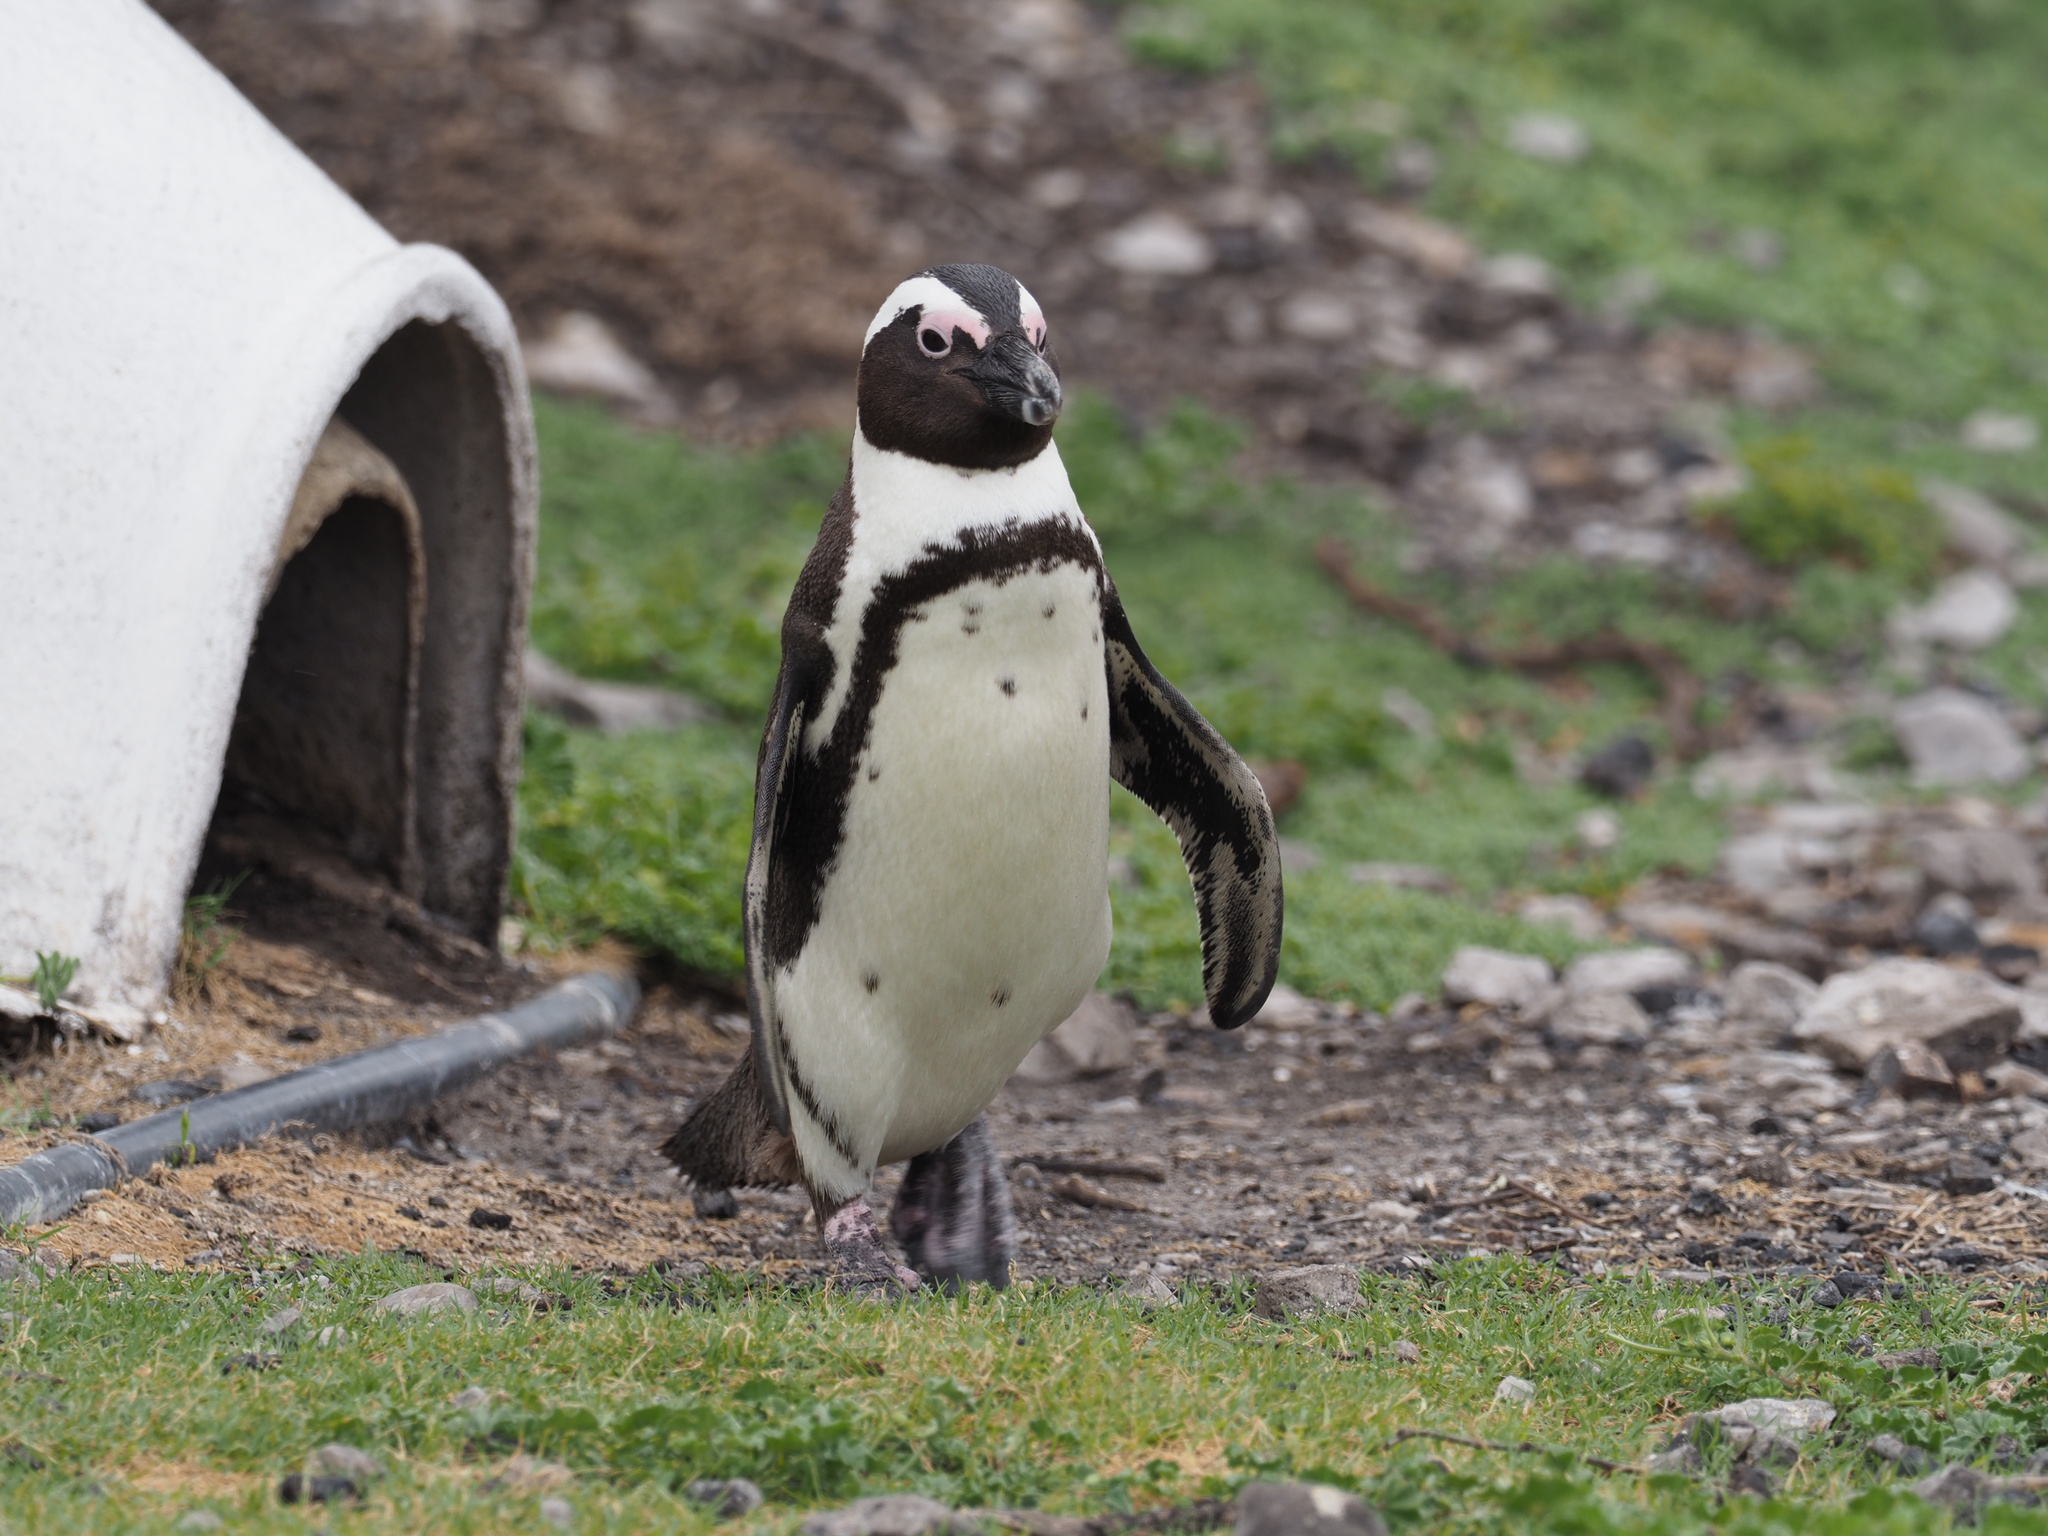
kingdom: Animalia
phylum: Chordata
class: Aves
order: Sphenisciformes
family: Spheniscidae
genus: Spheniscus
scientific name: Spheniscus demersus
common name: African penguin
